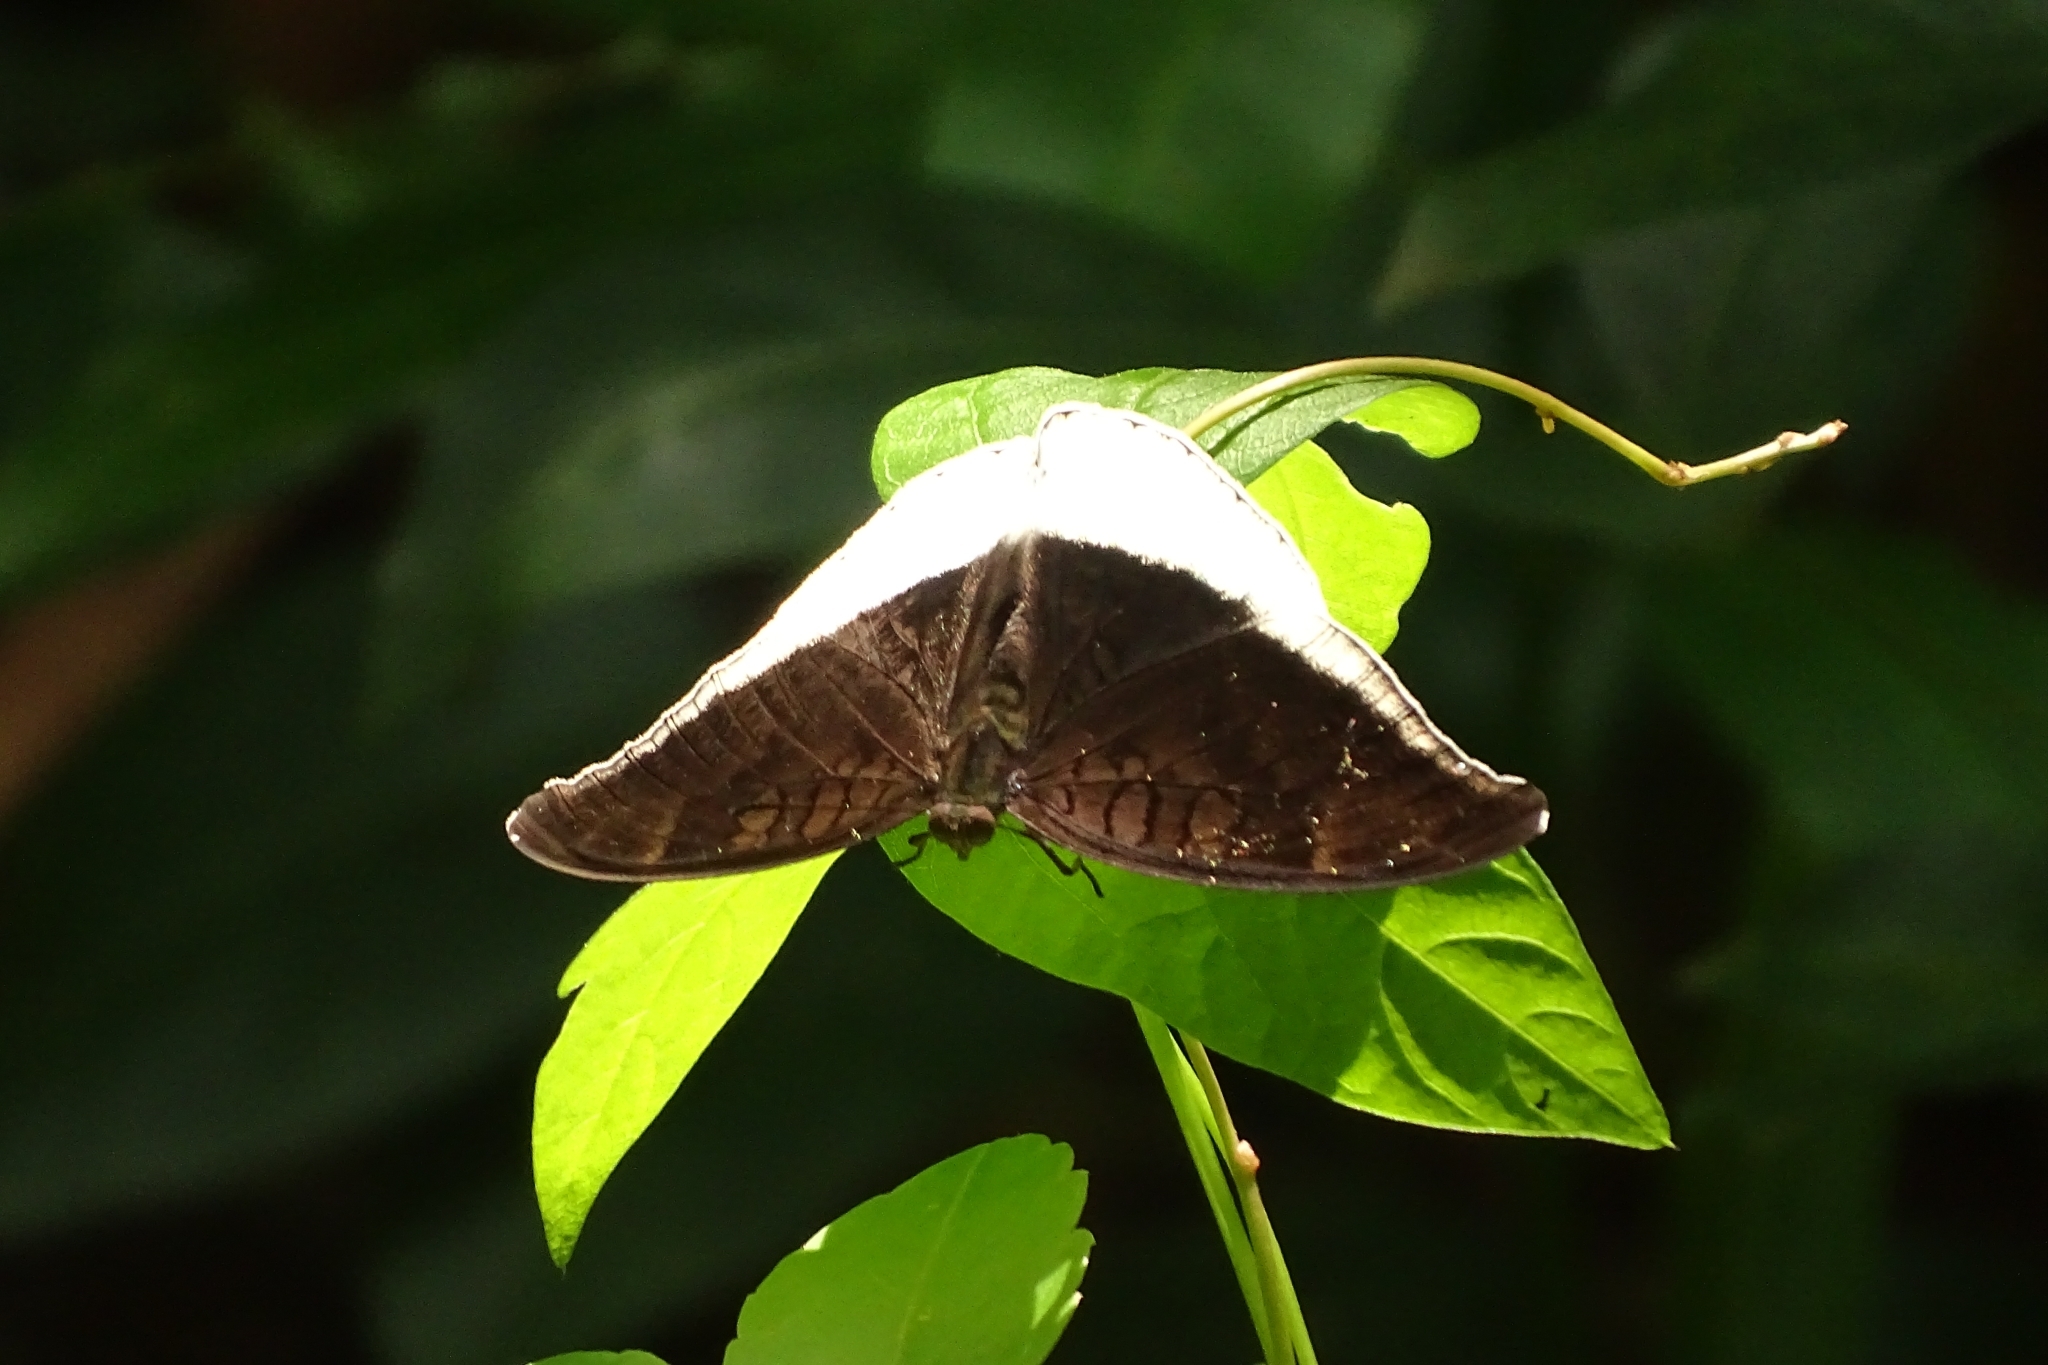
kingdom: Animalia
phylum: Arthropoda
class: Insecta
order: Lepidoptera
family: Nymphalidae
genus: Tanaecia
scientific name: Tanaecia lepidea
